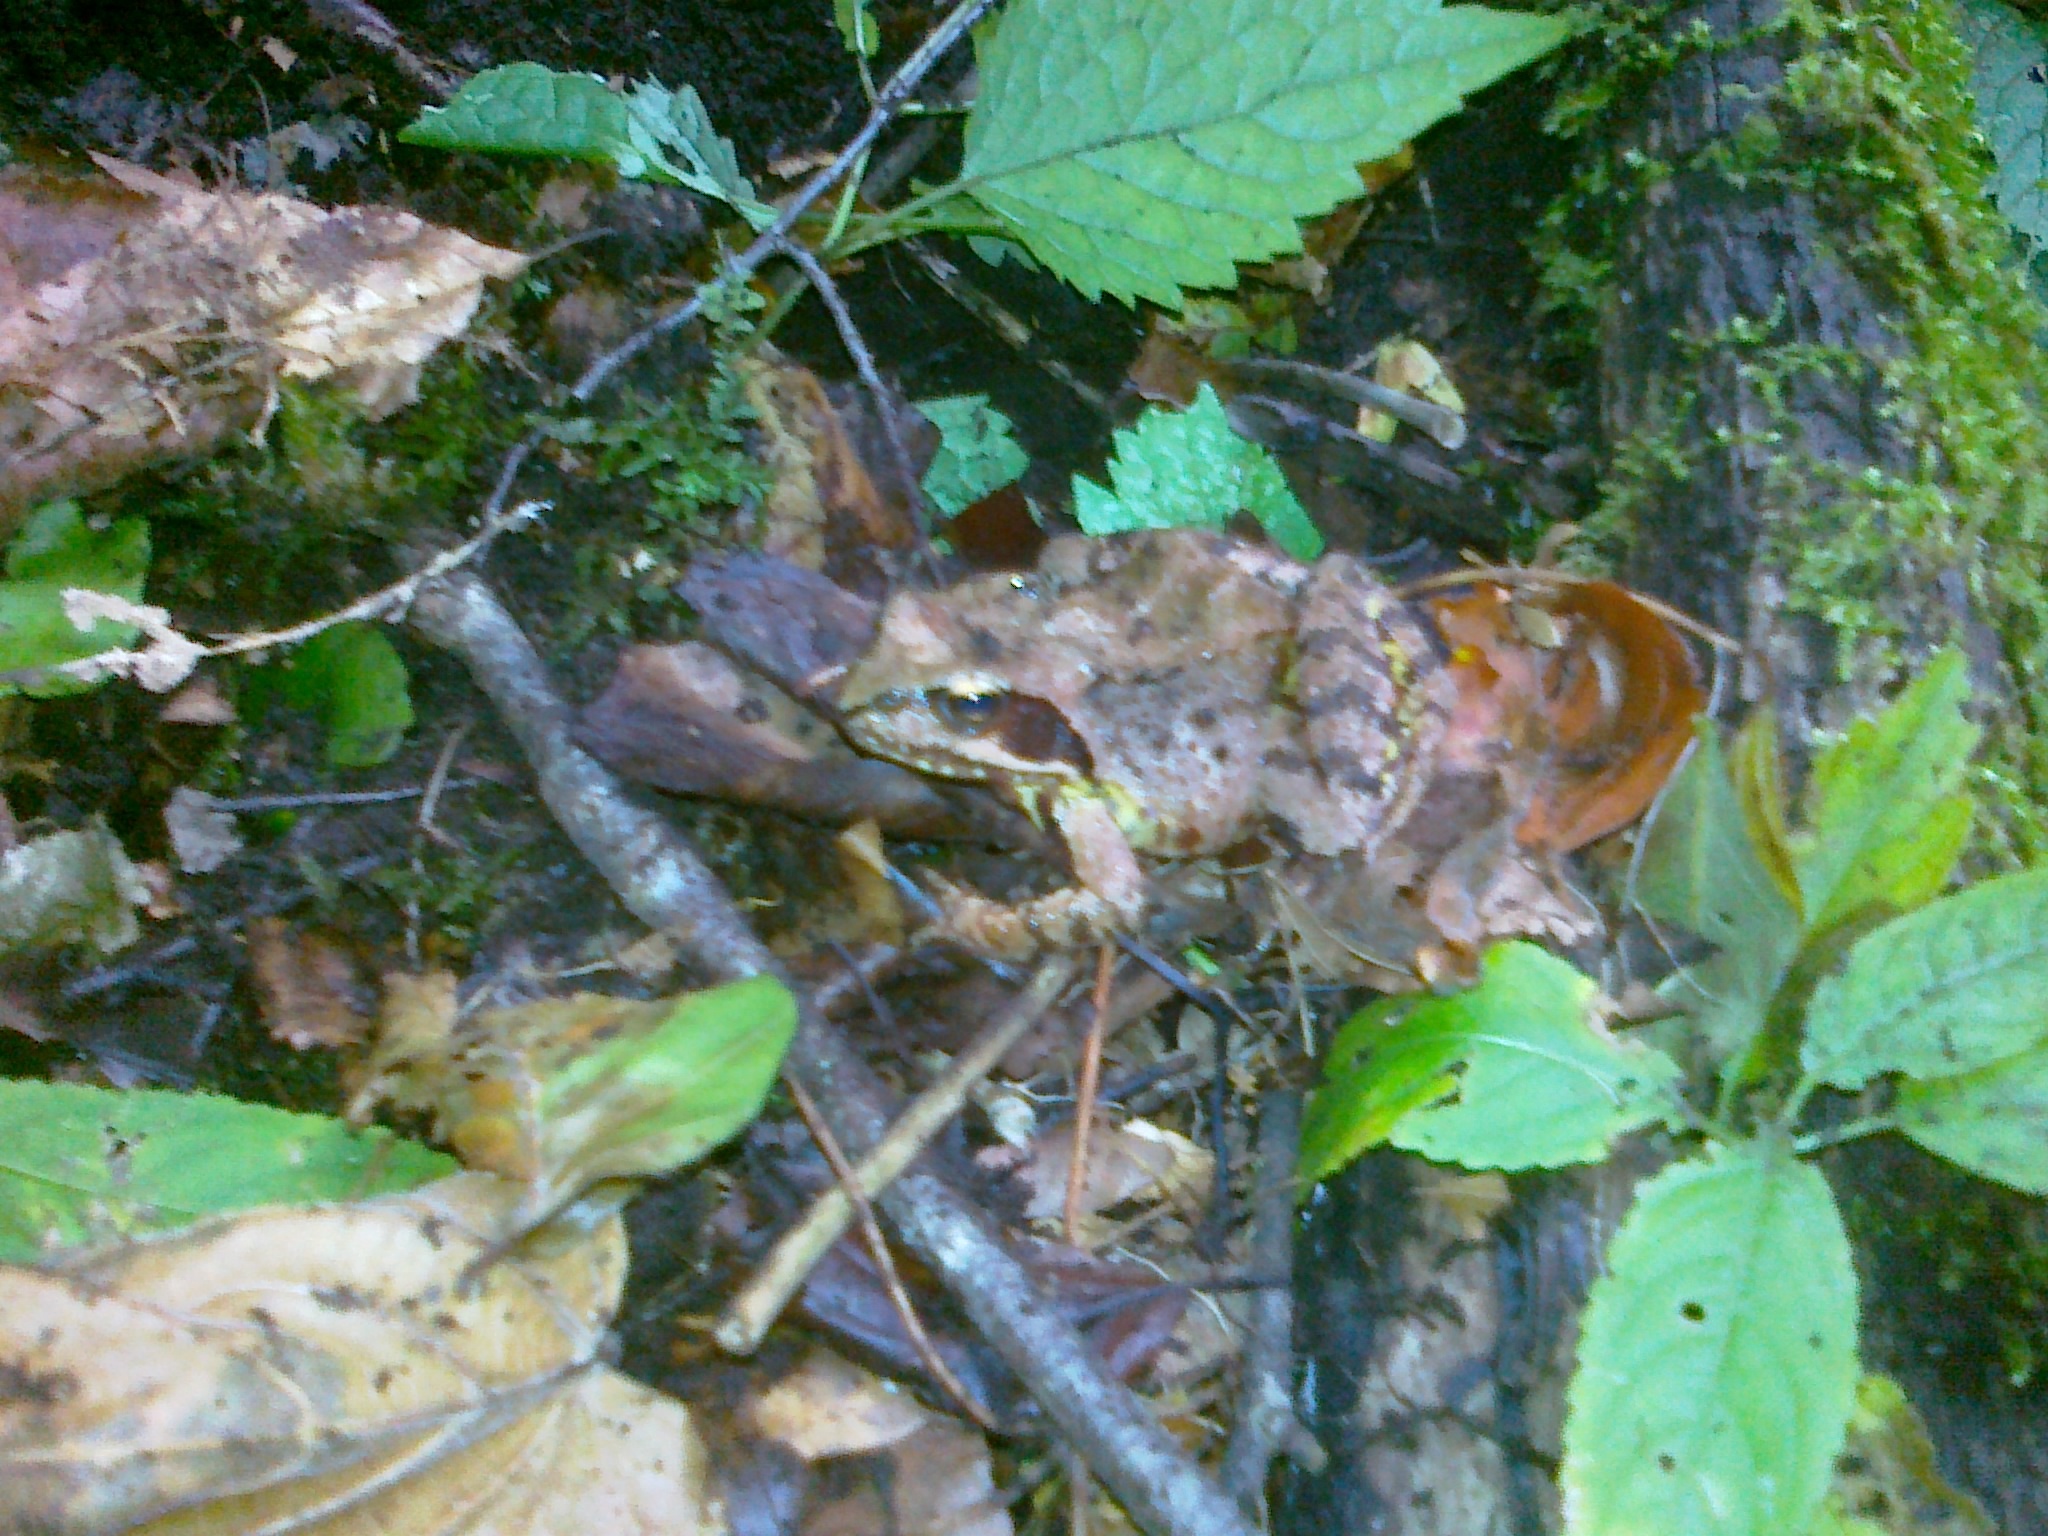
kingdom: Animalia
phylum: Chordata
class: Amphibia
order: Anura
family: Ranidae
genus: Rana
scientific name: Rana temporaria
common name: Common frog
